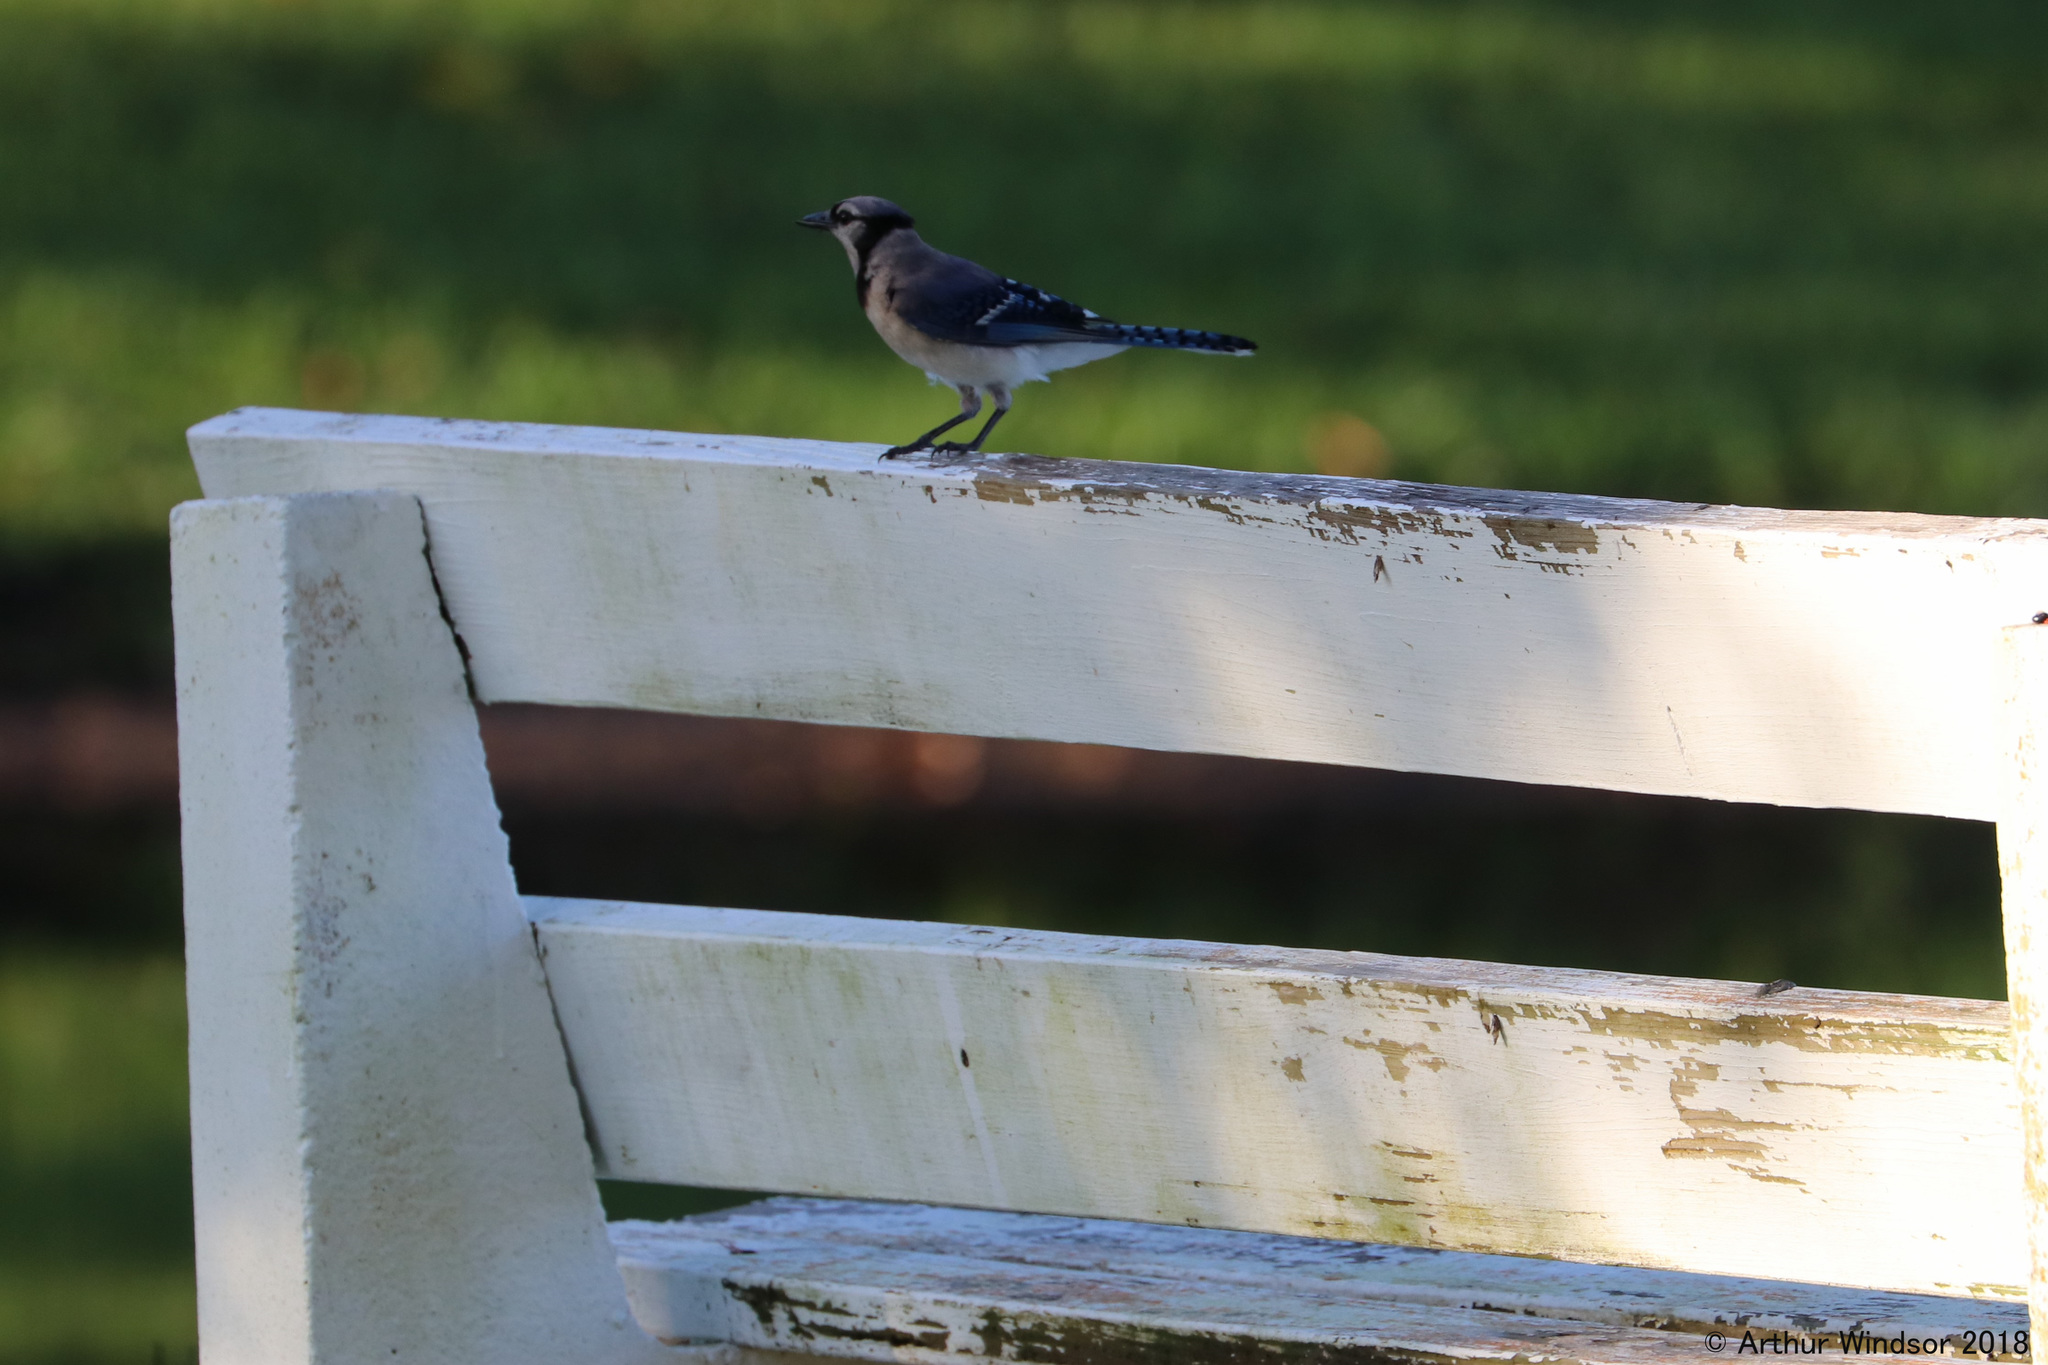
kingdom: Animalia
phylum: Chordata
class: Aves
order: Passeriformes
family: Corvidae
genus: Cyanocitta
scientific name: Cyanocitta cristata
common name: Blue jay
